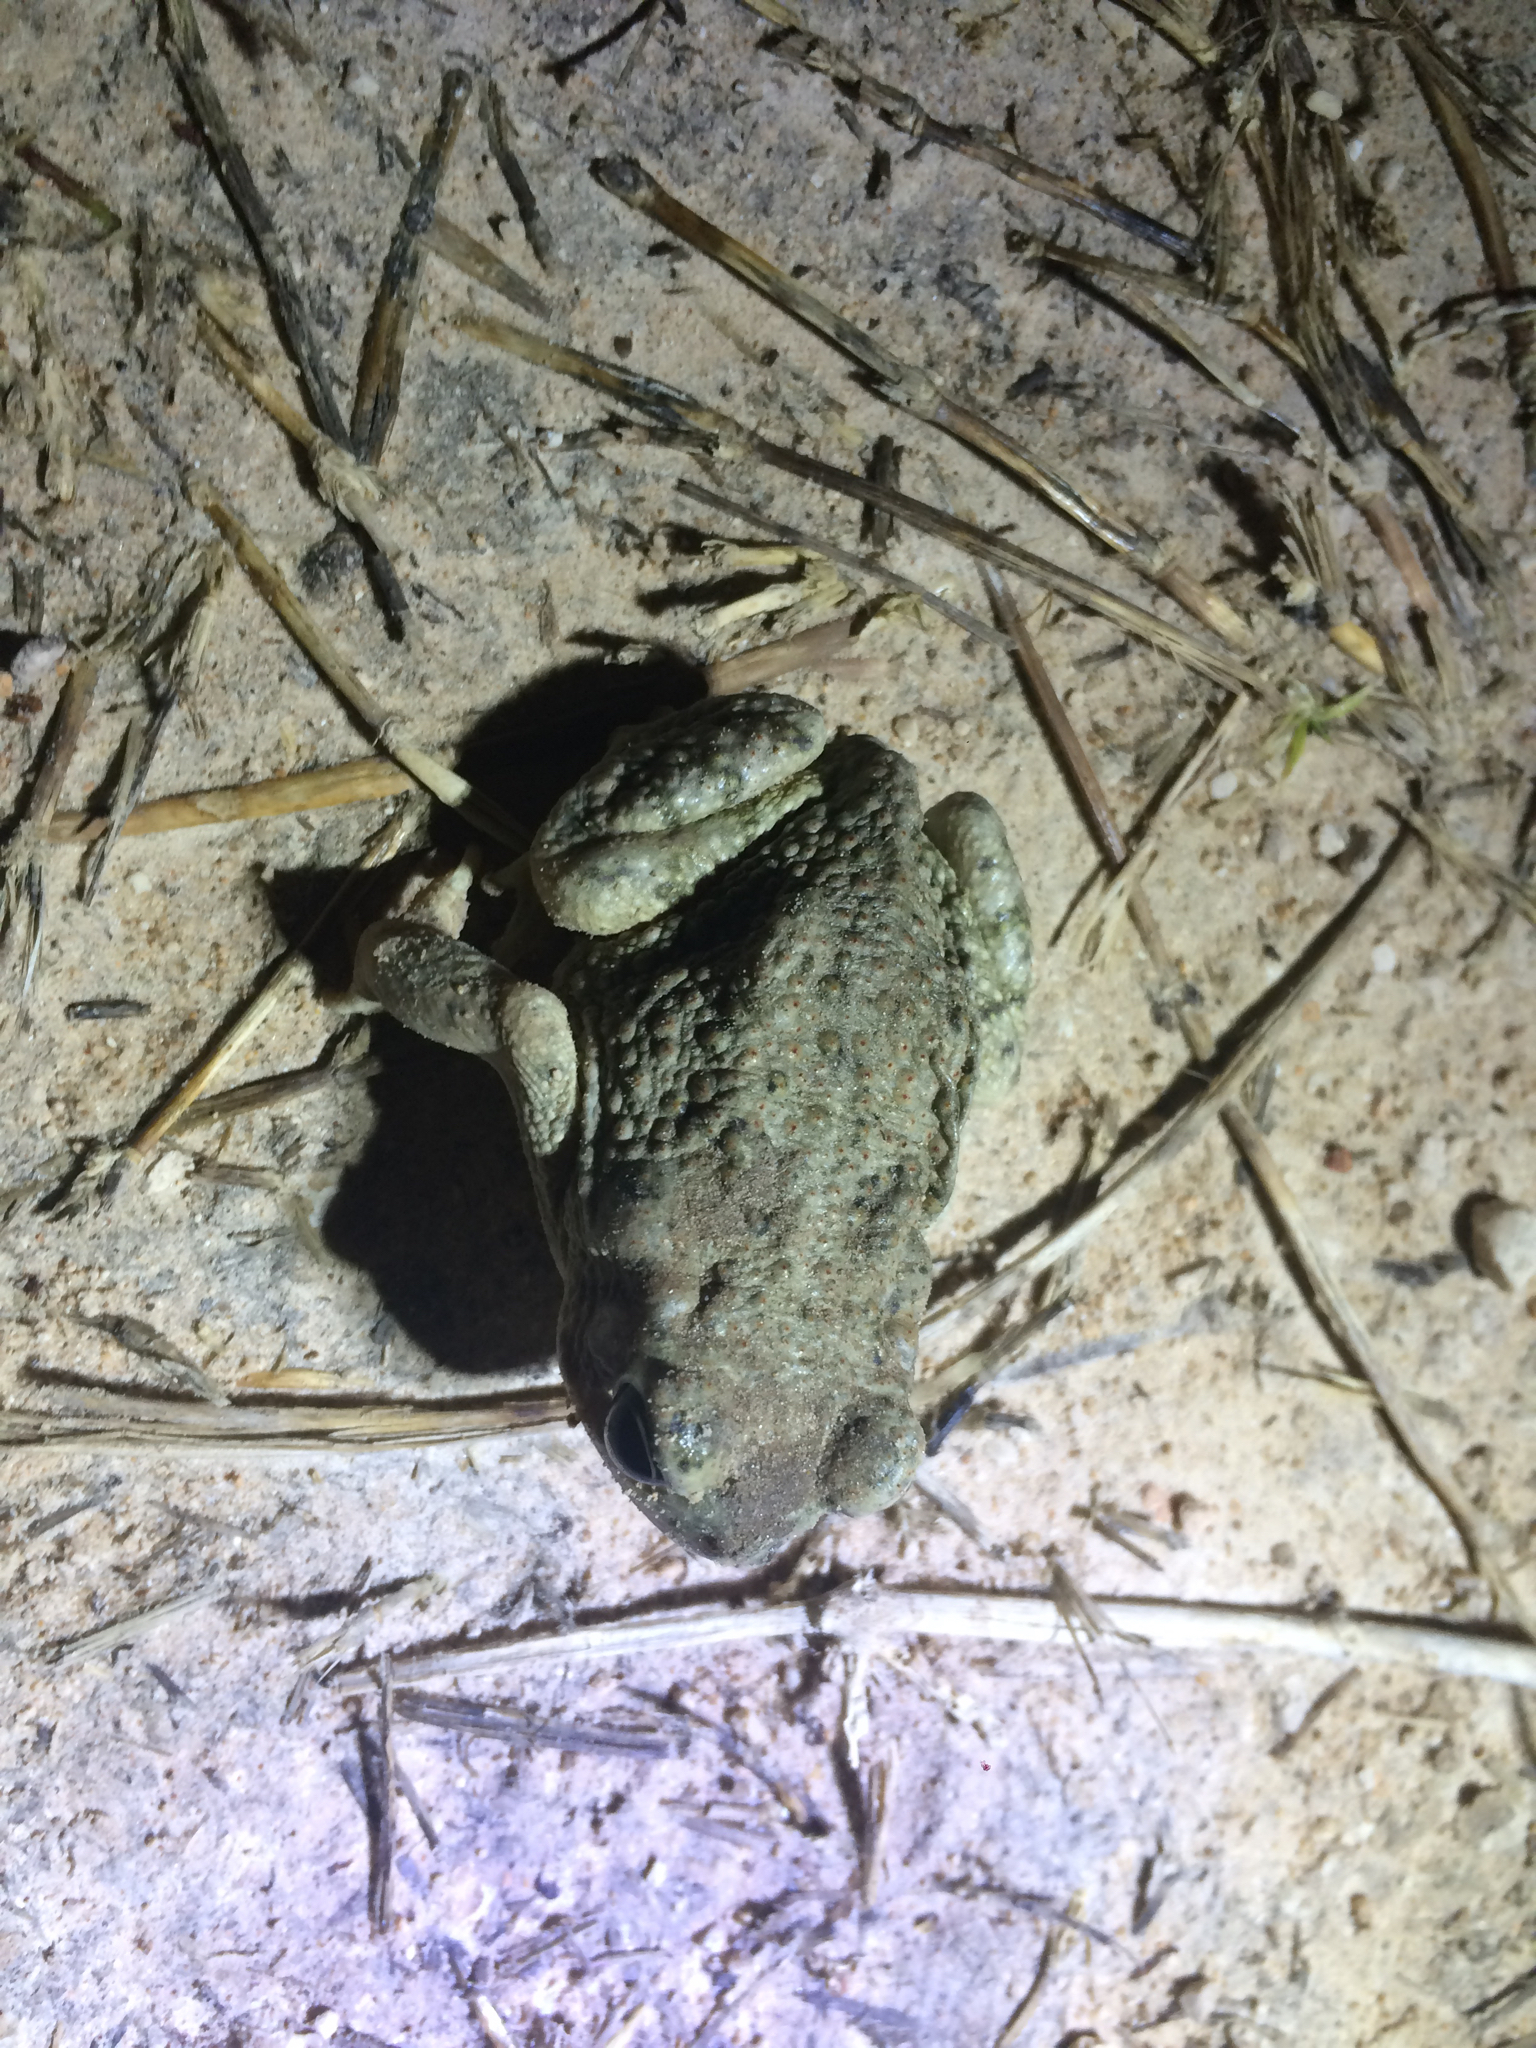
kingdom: Animalia
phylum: Chordata
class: Amphibia
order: Anura
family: Bufonidae
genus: Anaxyrus
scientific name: Anaxyrus speciosus
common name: Texas toad
